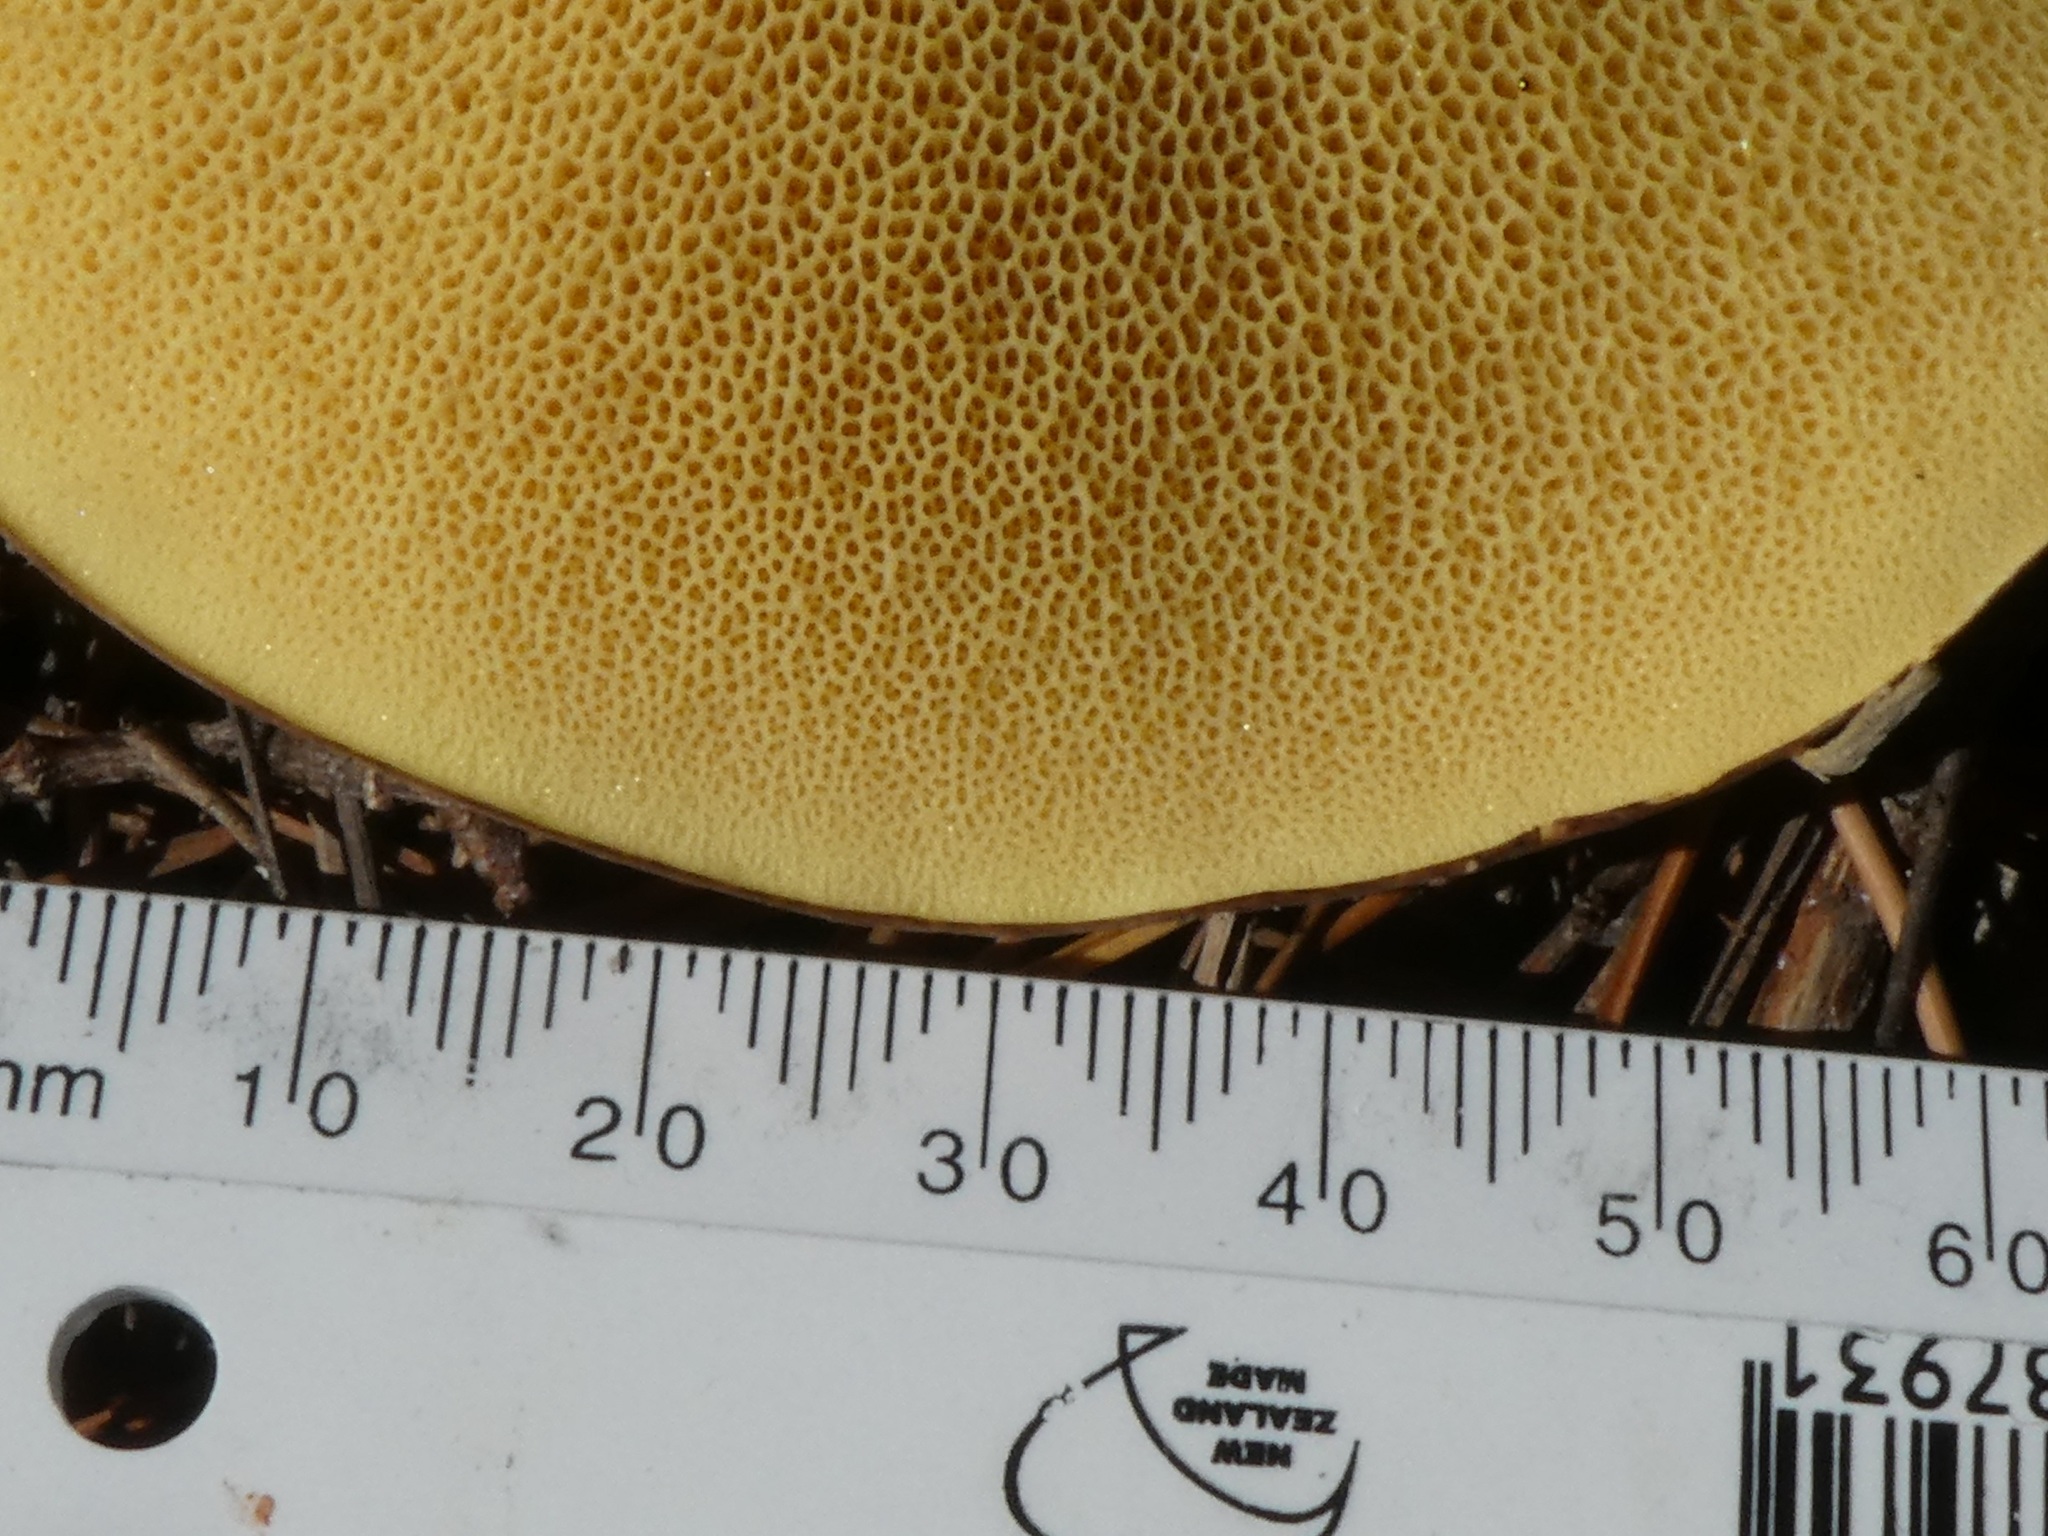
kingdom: Fungi
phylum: Basidiomycota
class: Agaricomycetes
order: Boletales
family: Suillaceae
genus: Suillus
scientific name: Suillus granulatus
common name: Weeping bolete
